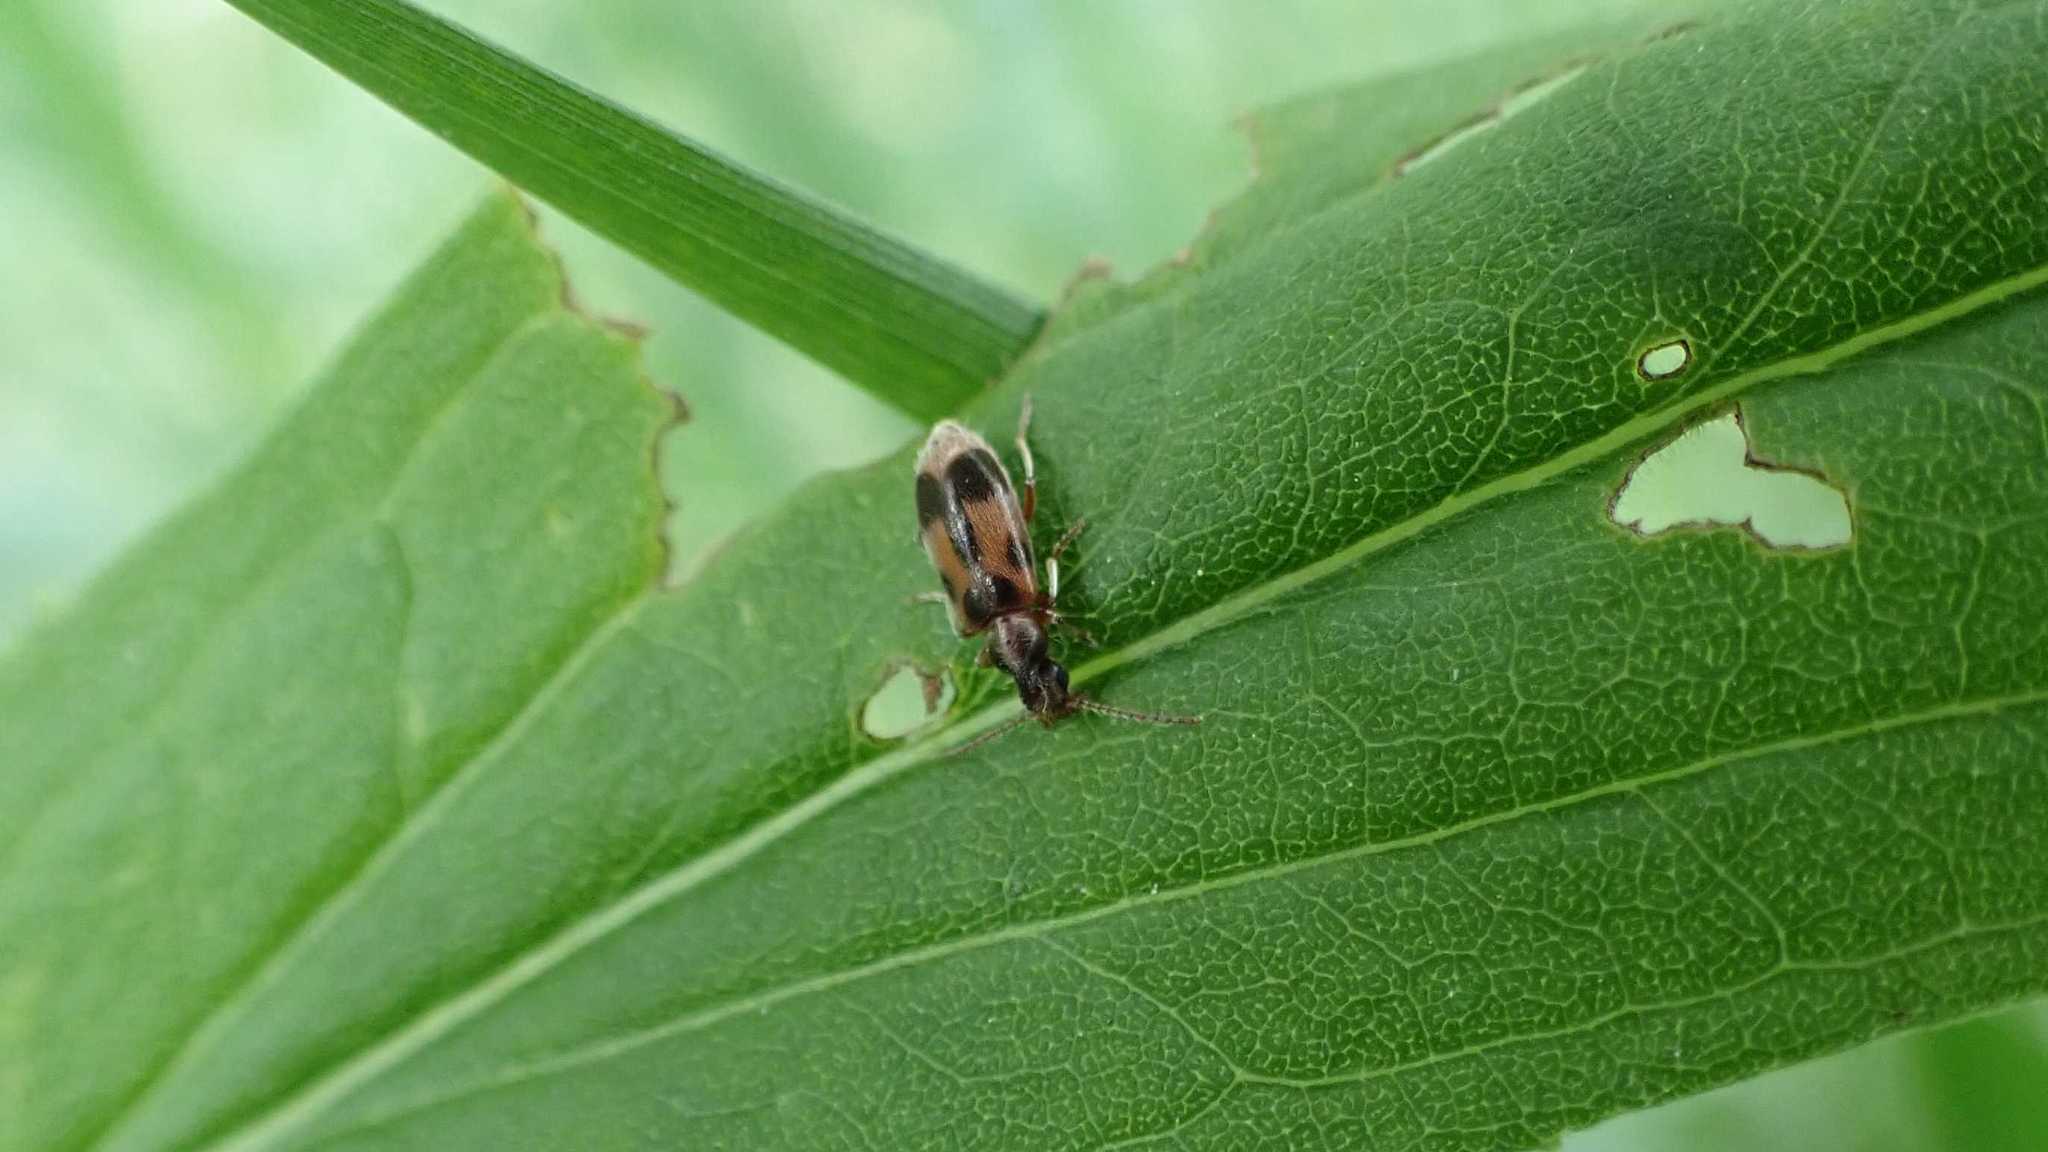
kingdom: Animalia
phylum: Arthropoda
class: Insecta
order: Coleoptera
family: Anthicidae
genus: Notoxus
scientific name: Notoxus monoceros
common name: Monoceros beetle
